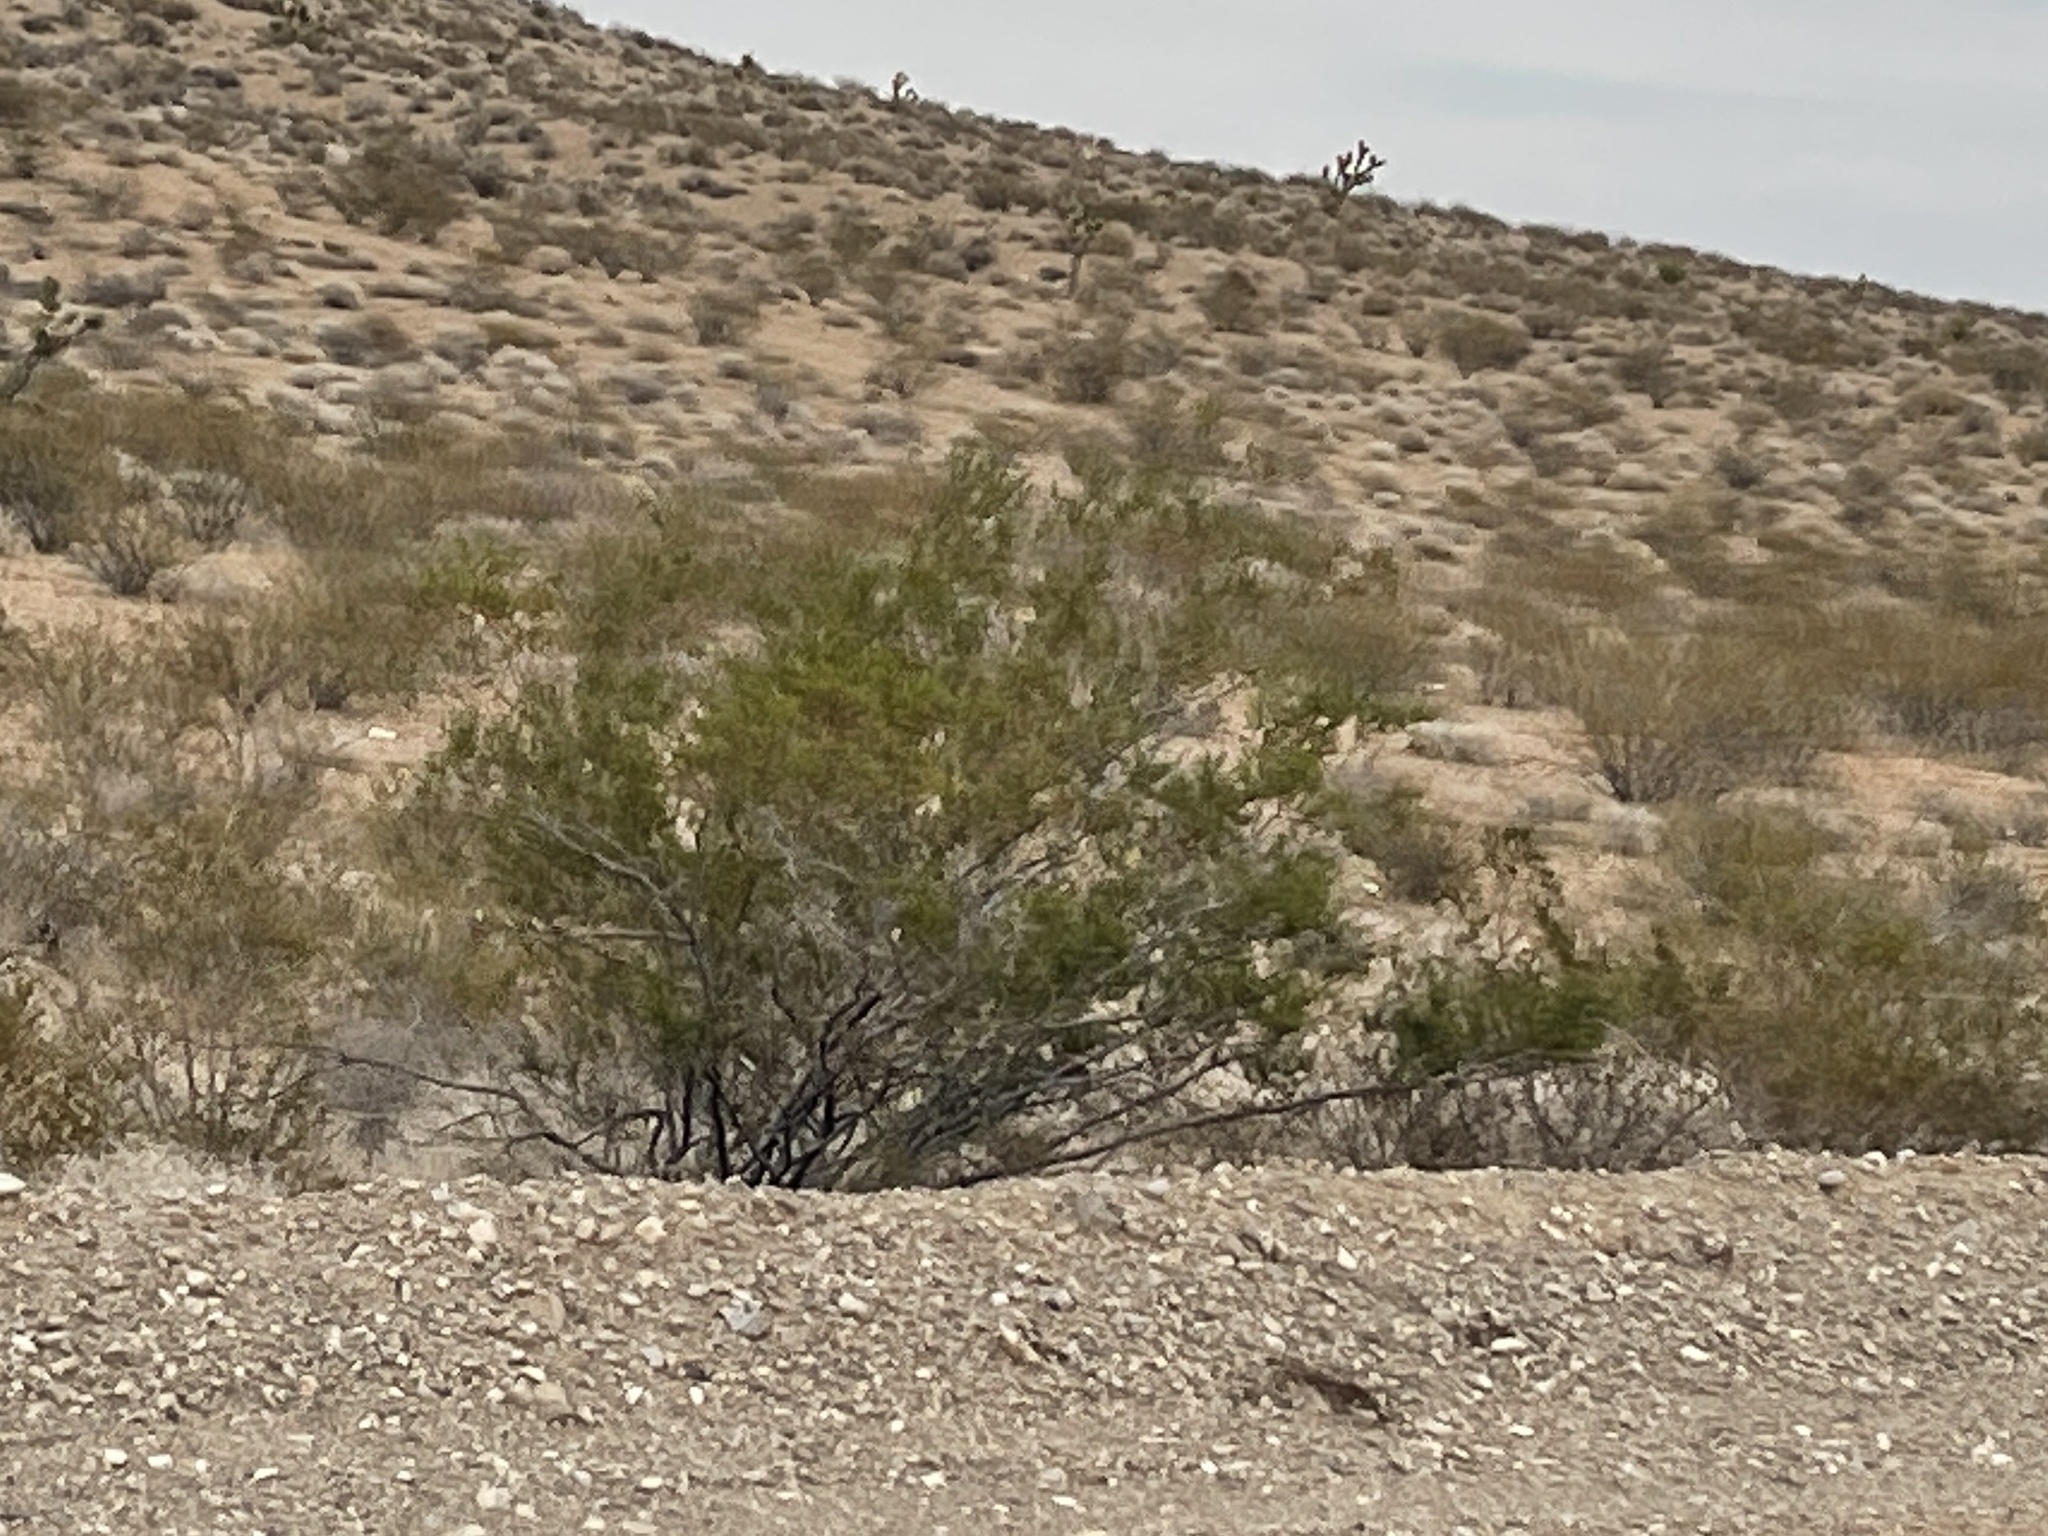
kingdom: Plantae
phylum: Tracheophyta
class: Magnoliopsida
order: Zygophyllales
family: Zygophyllaceae
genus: Larrea
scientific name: Larrea tridentata
